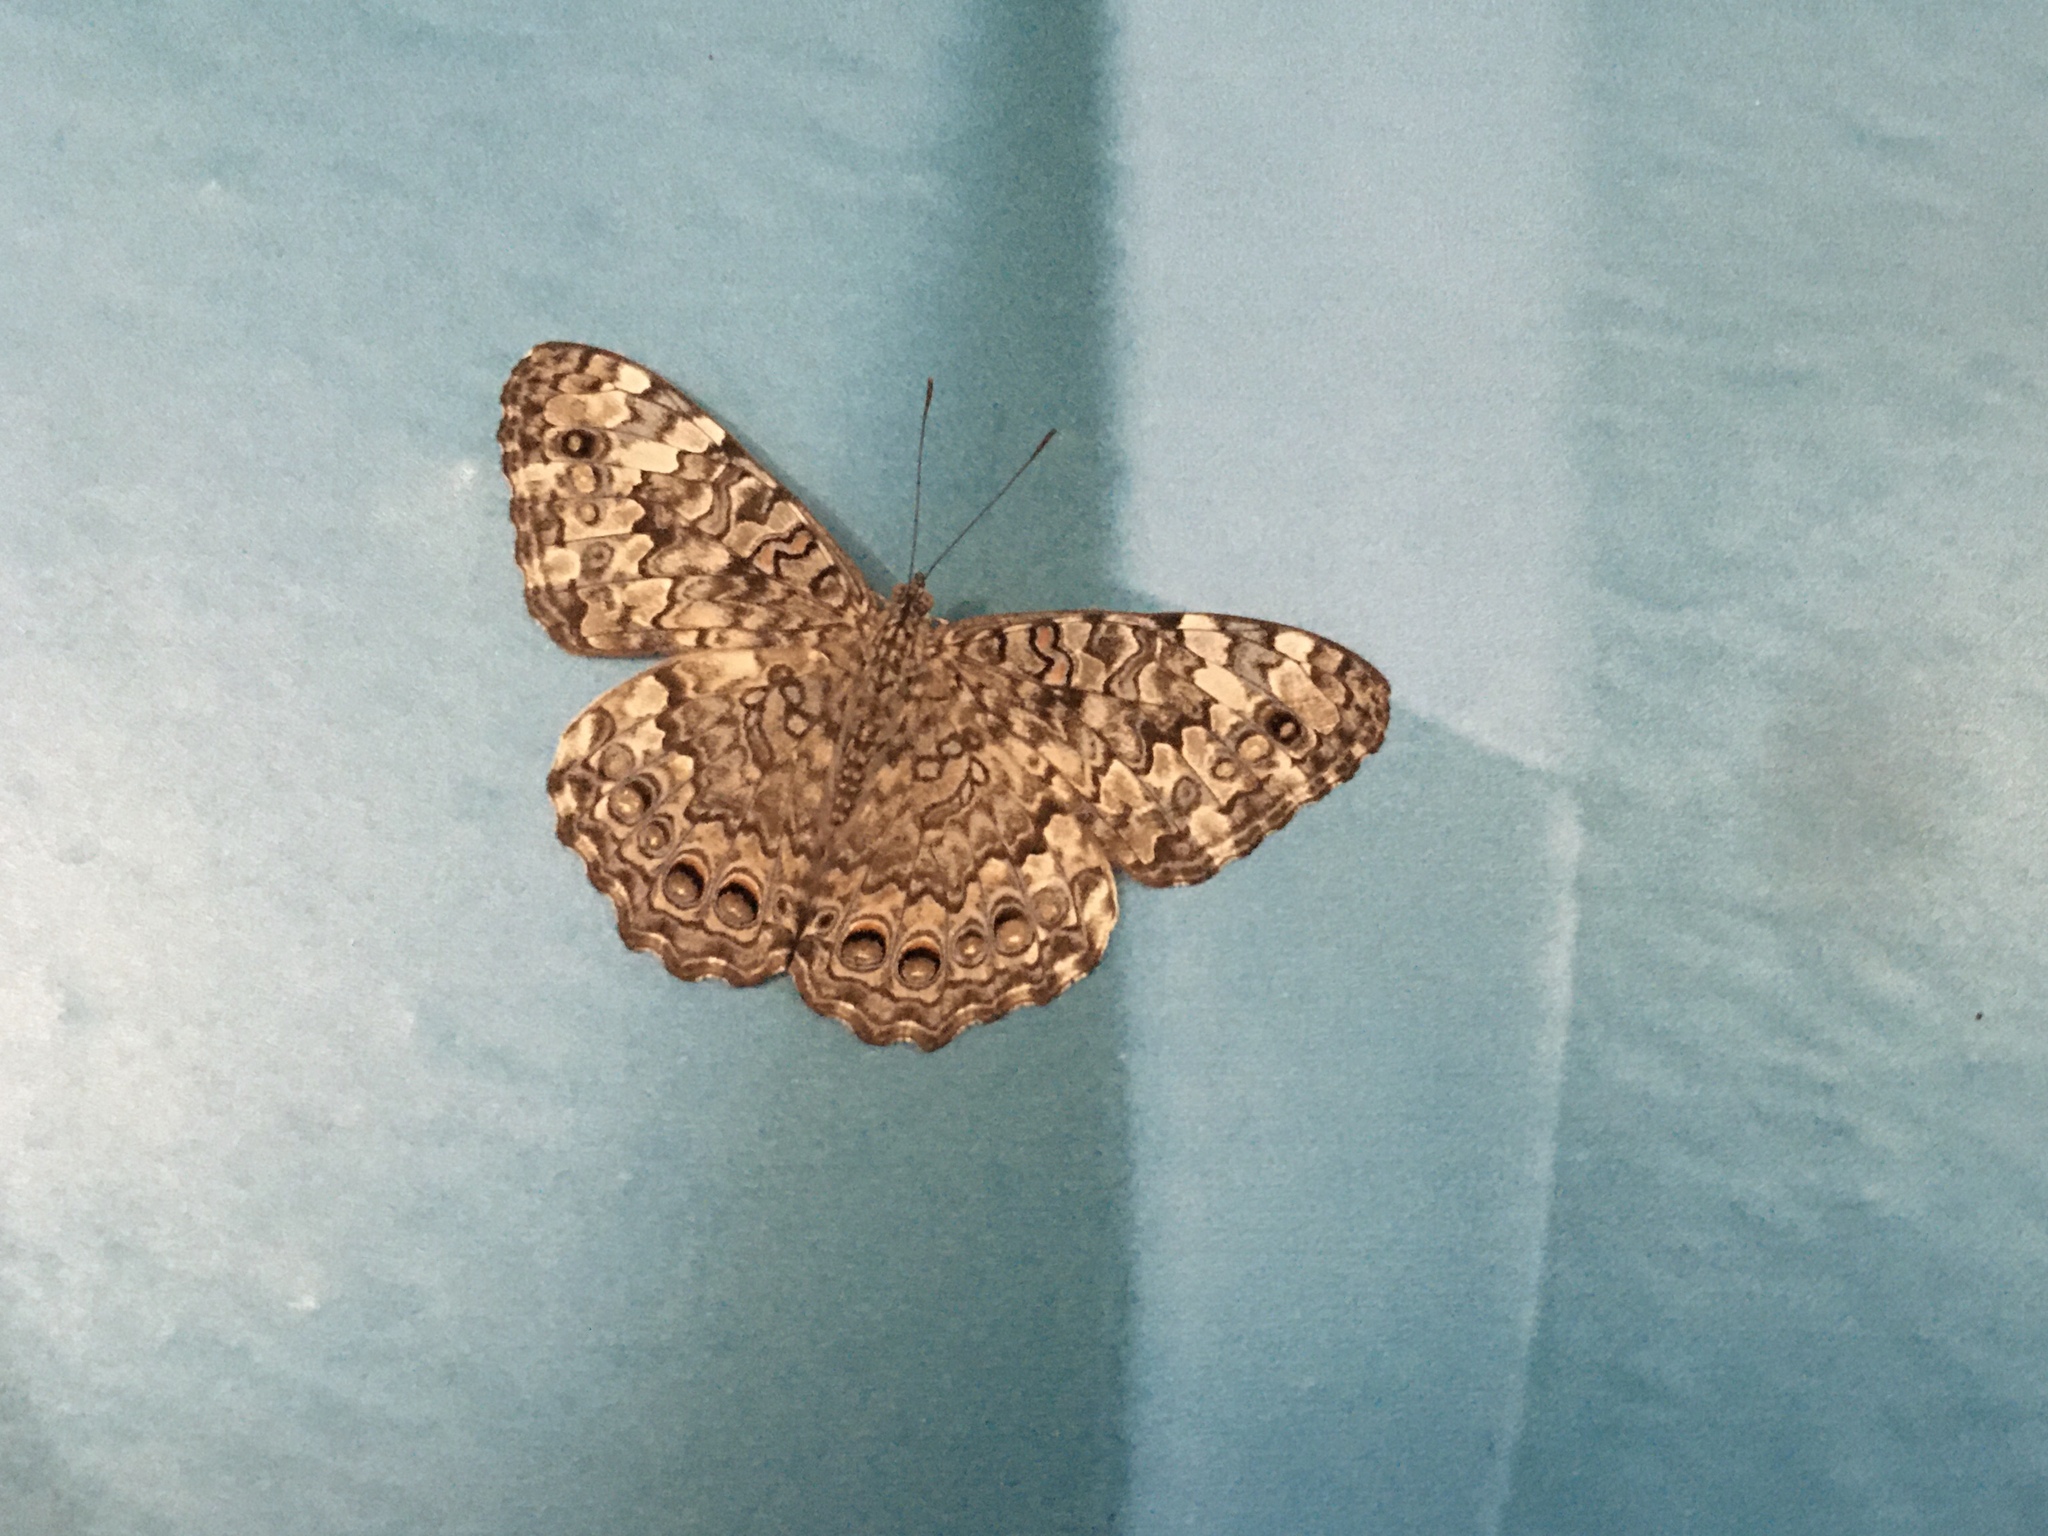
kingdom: Animalia
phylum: Arthropoda
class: Insecta
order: Lepidoptera
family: Nymphalidae
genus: Hamadryas
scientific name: Hamadryas februa
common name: Gray cracker
